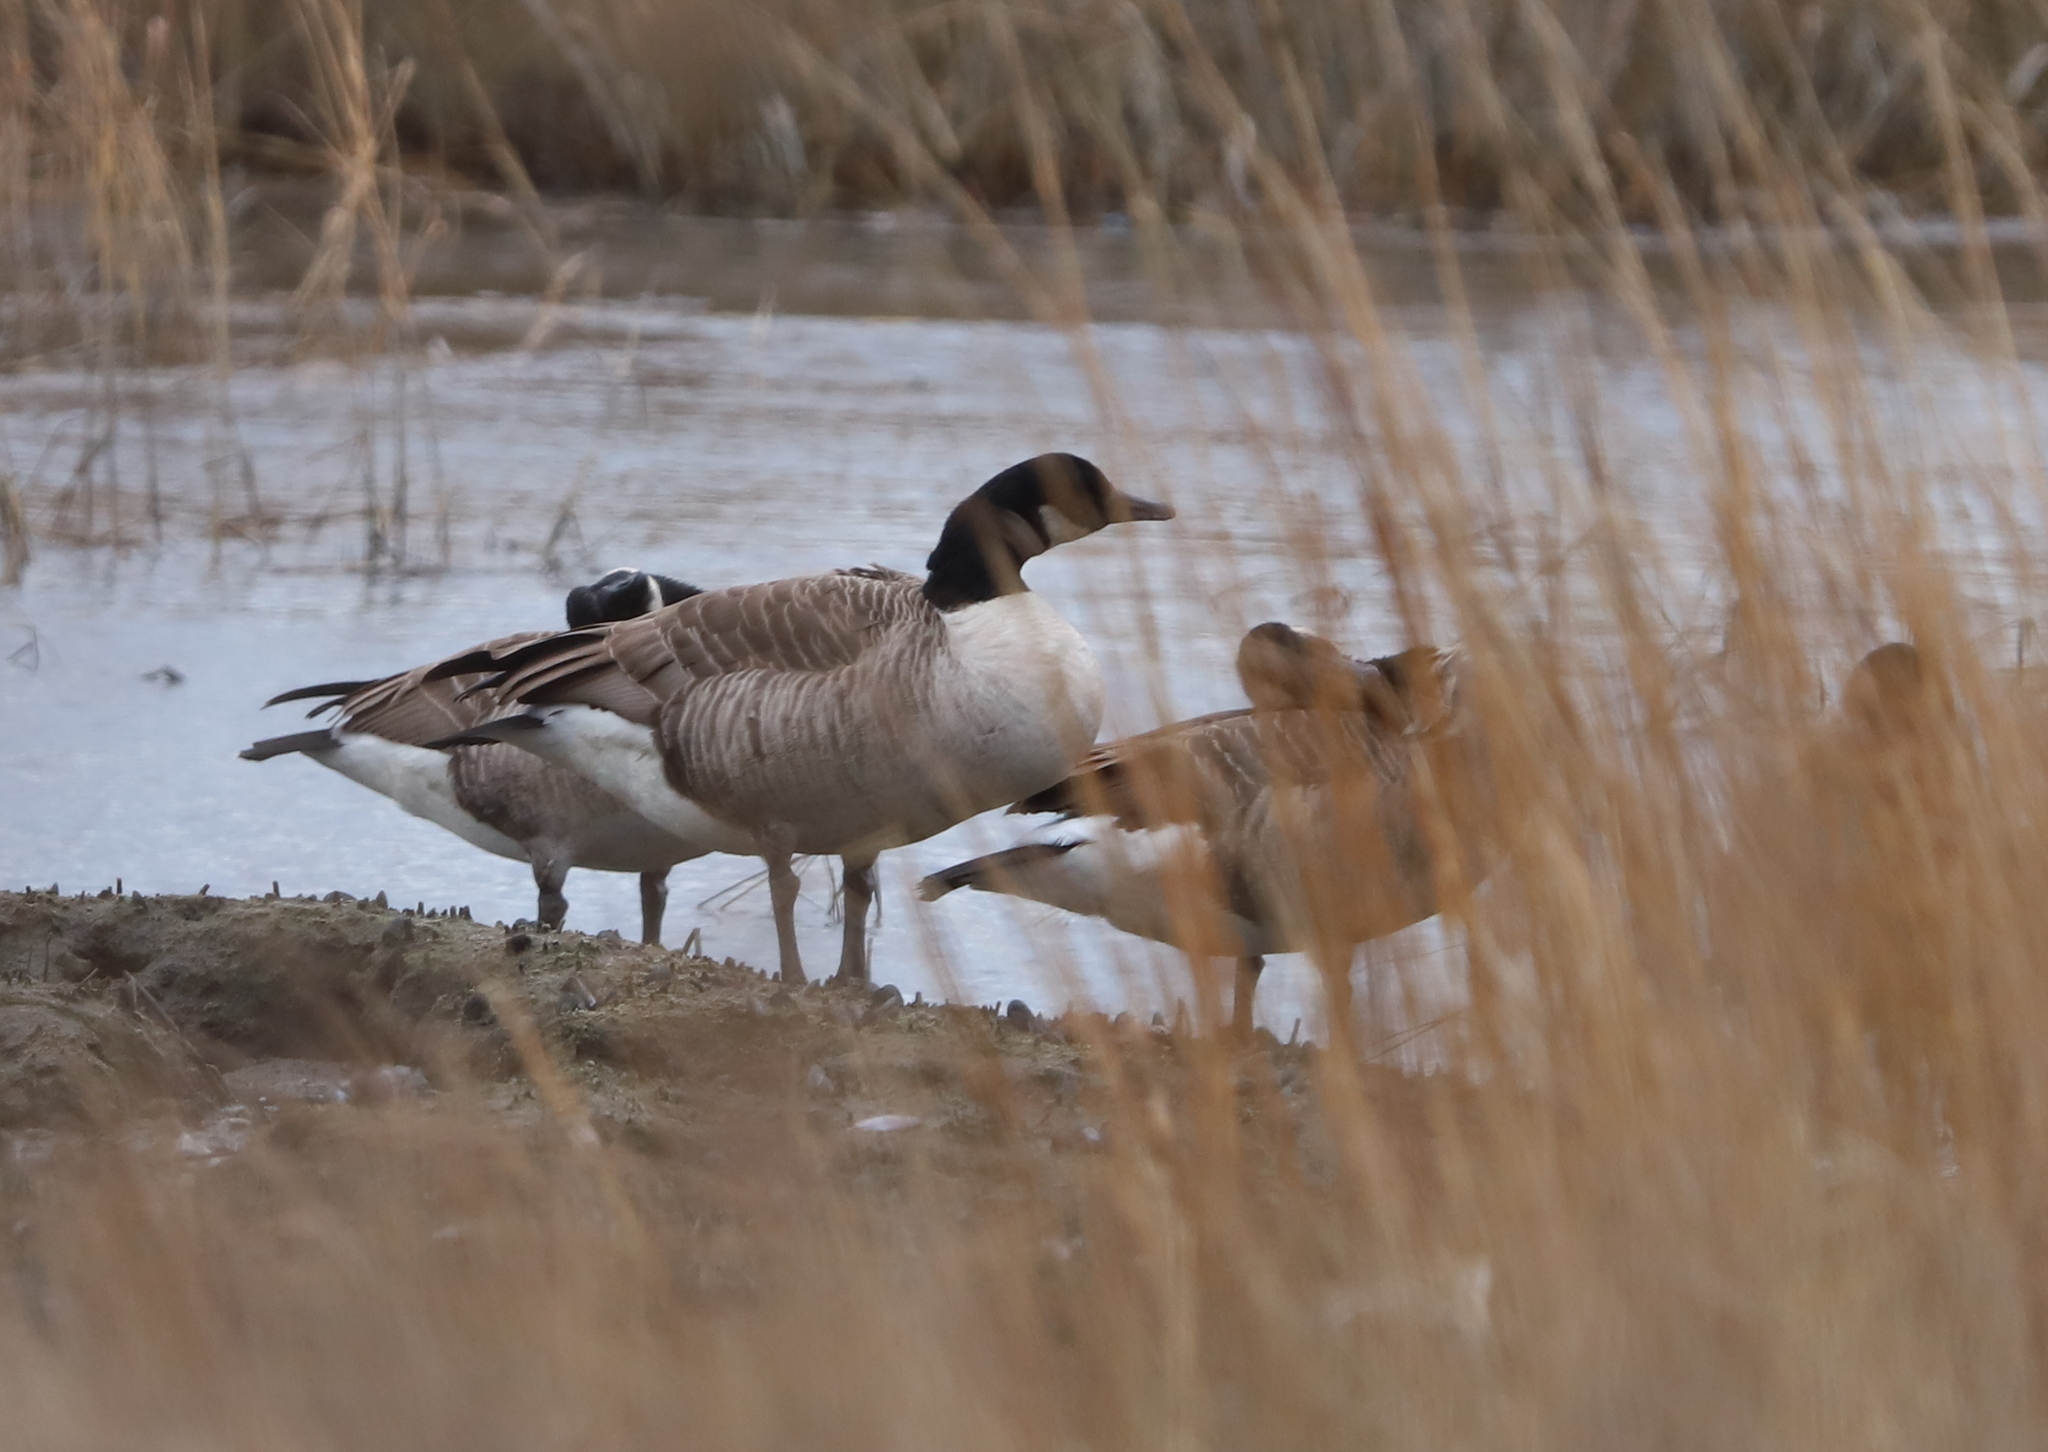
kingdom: Animalia
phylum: Chordata
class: Aves
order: Anseriformes
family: Anatidae
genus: Branta
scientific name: Branta canadensis
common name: Canada goose
